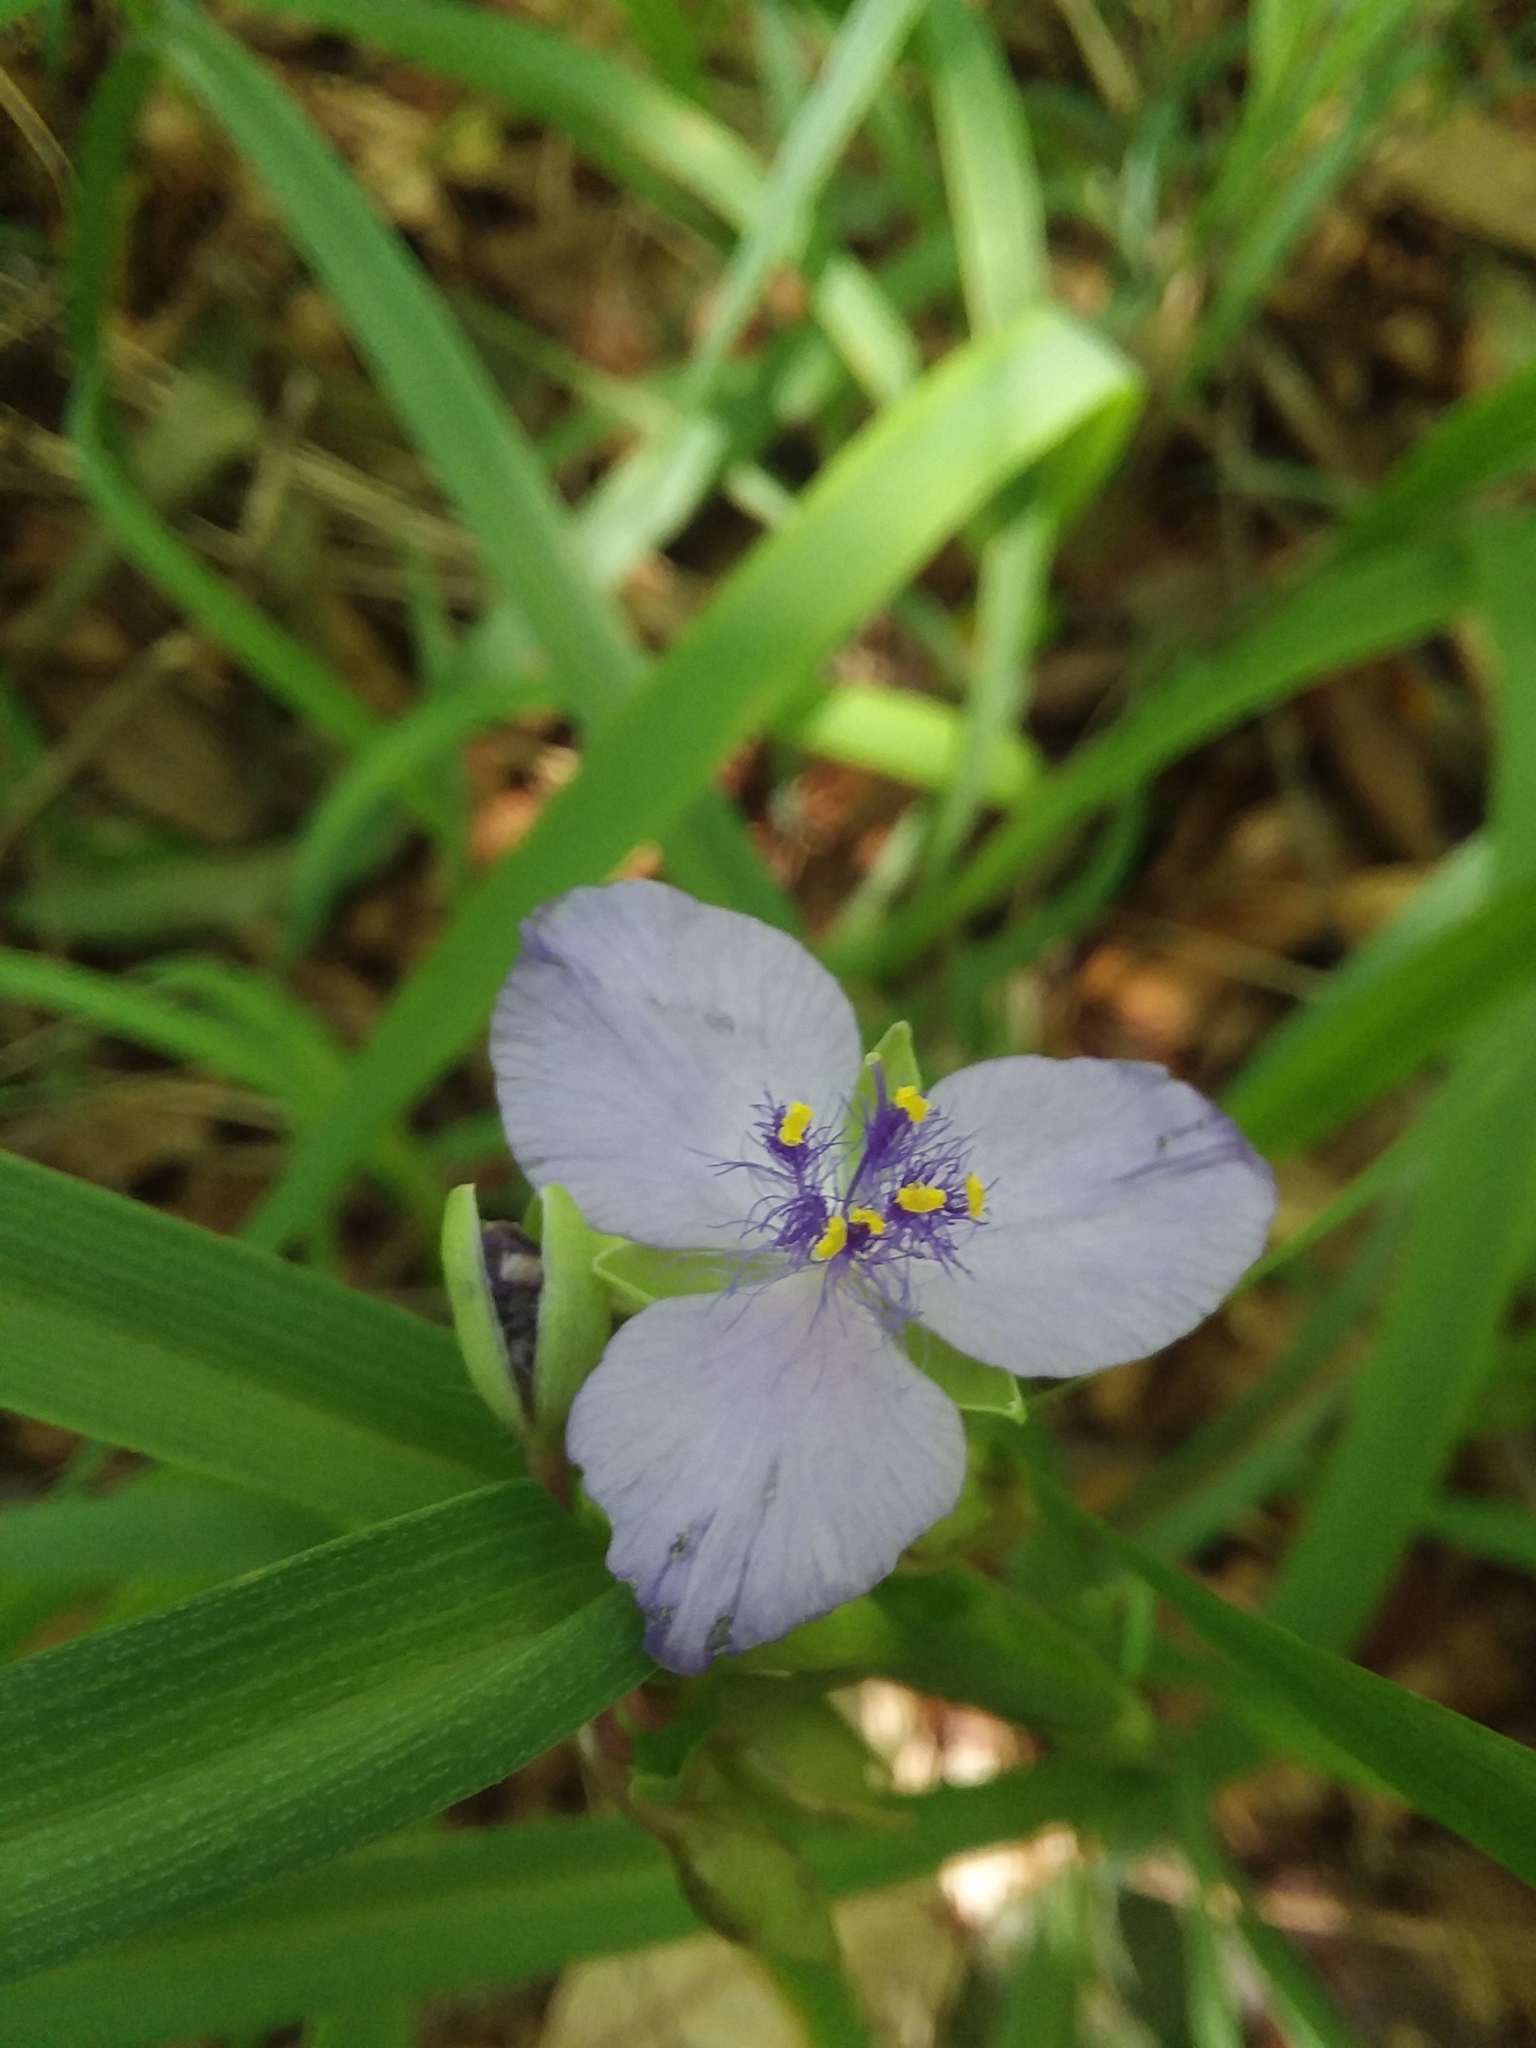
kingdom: Plantae
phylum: Tracheophyta
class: Liliopsida
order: Commelinales
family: Commelinaceae
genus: Tradescantia
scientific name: Tradescantia virginiana
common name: Spiderwort
